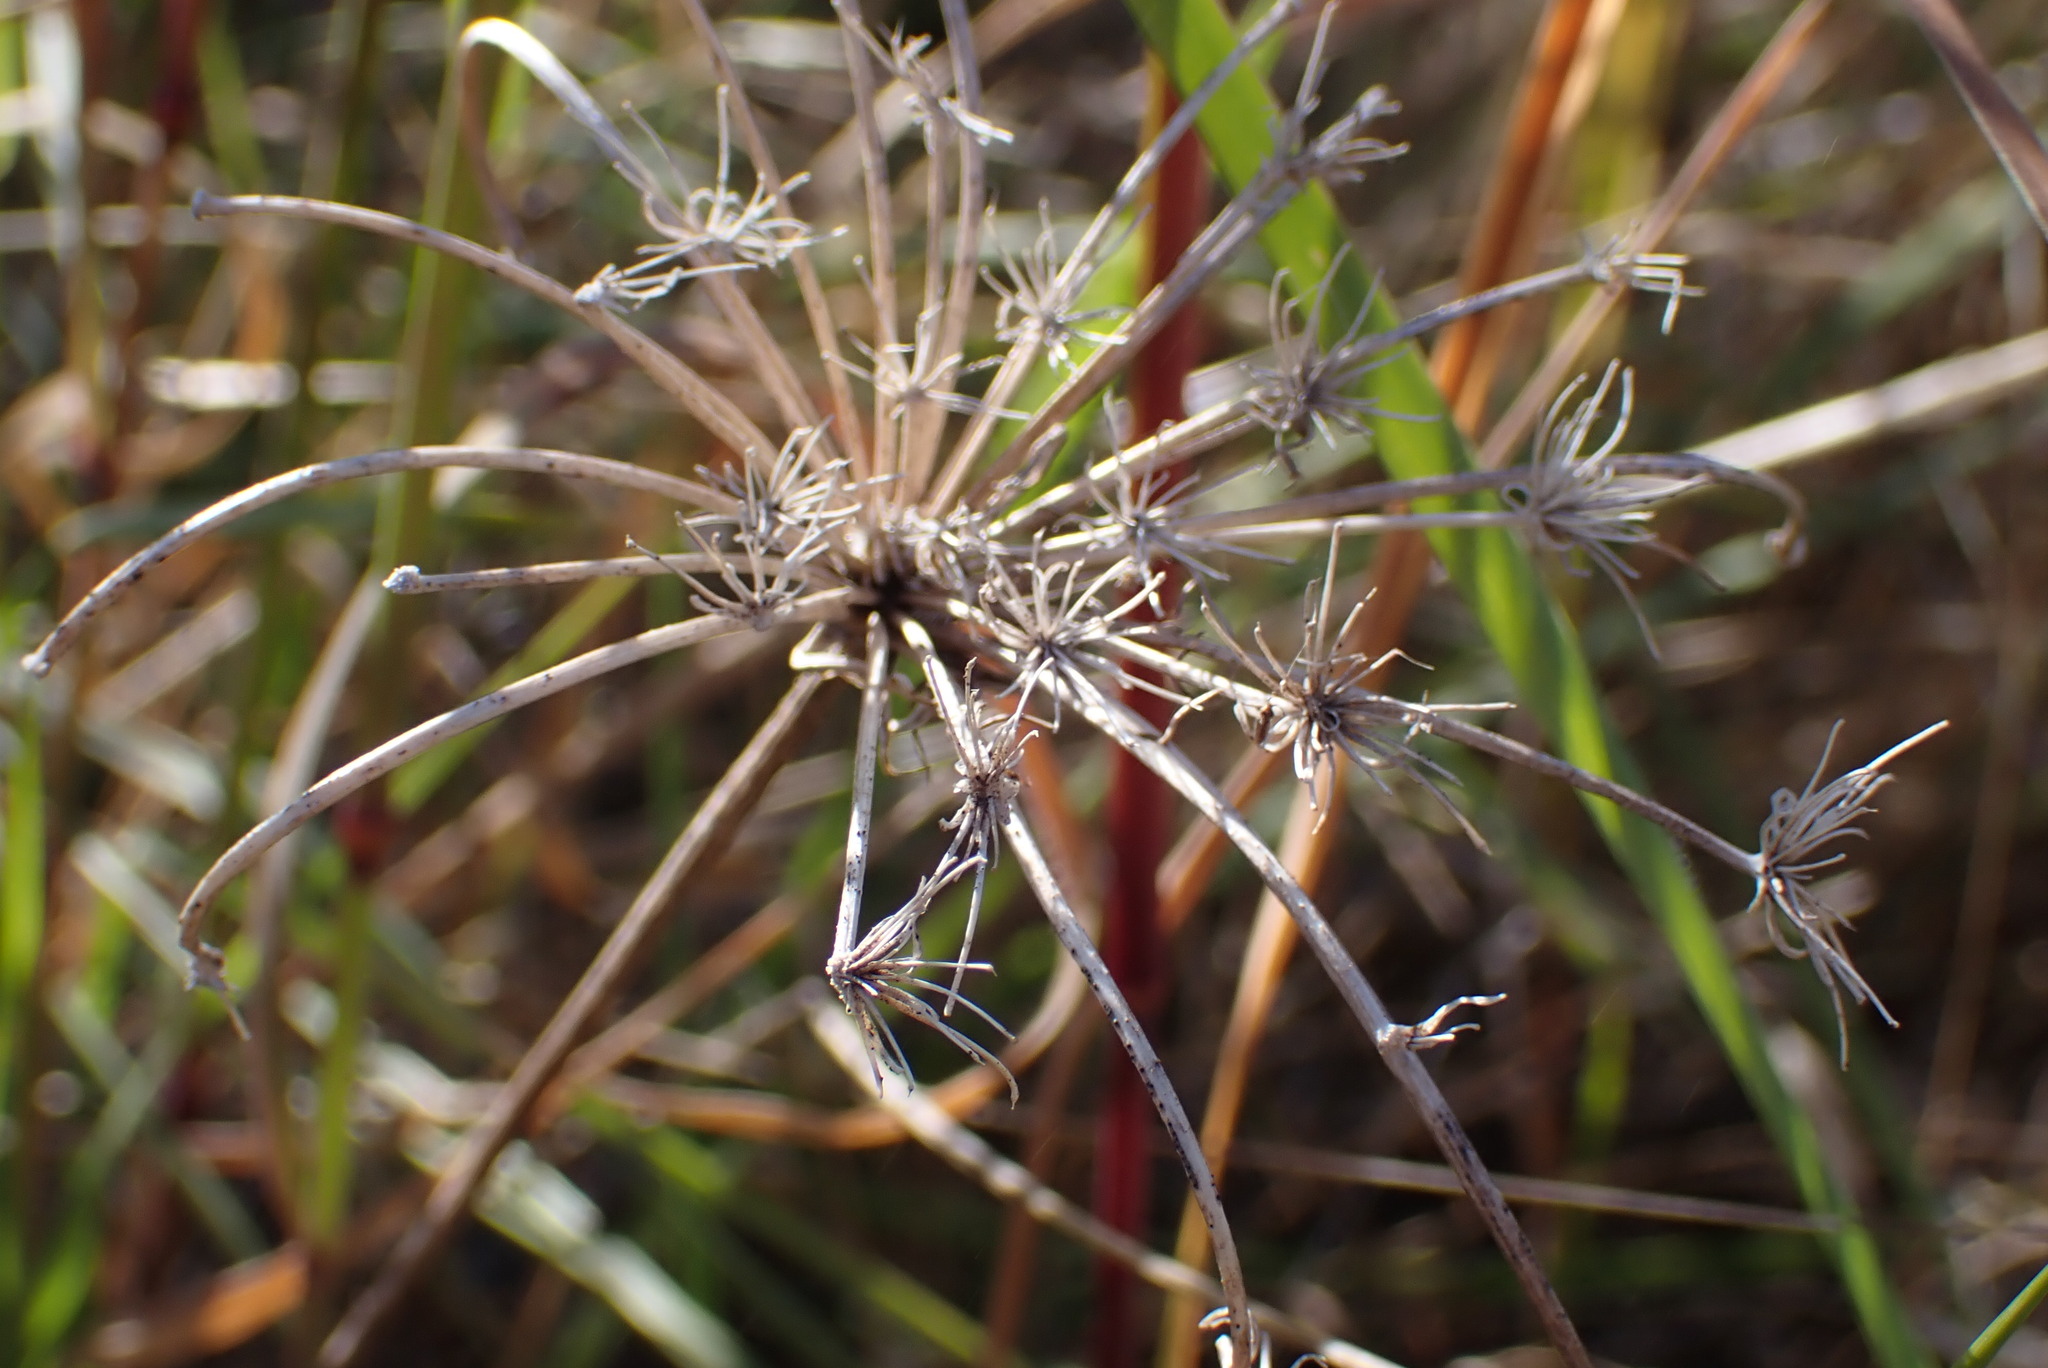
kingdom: Plantae
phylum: Tracheophyta
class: Magnoliopsida
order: Apiales
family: Apiaceae
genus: Daucus
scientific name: Daucus carota
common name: Wild carrot
